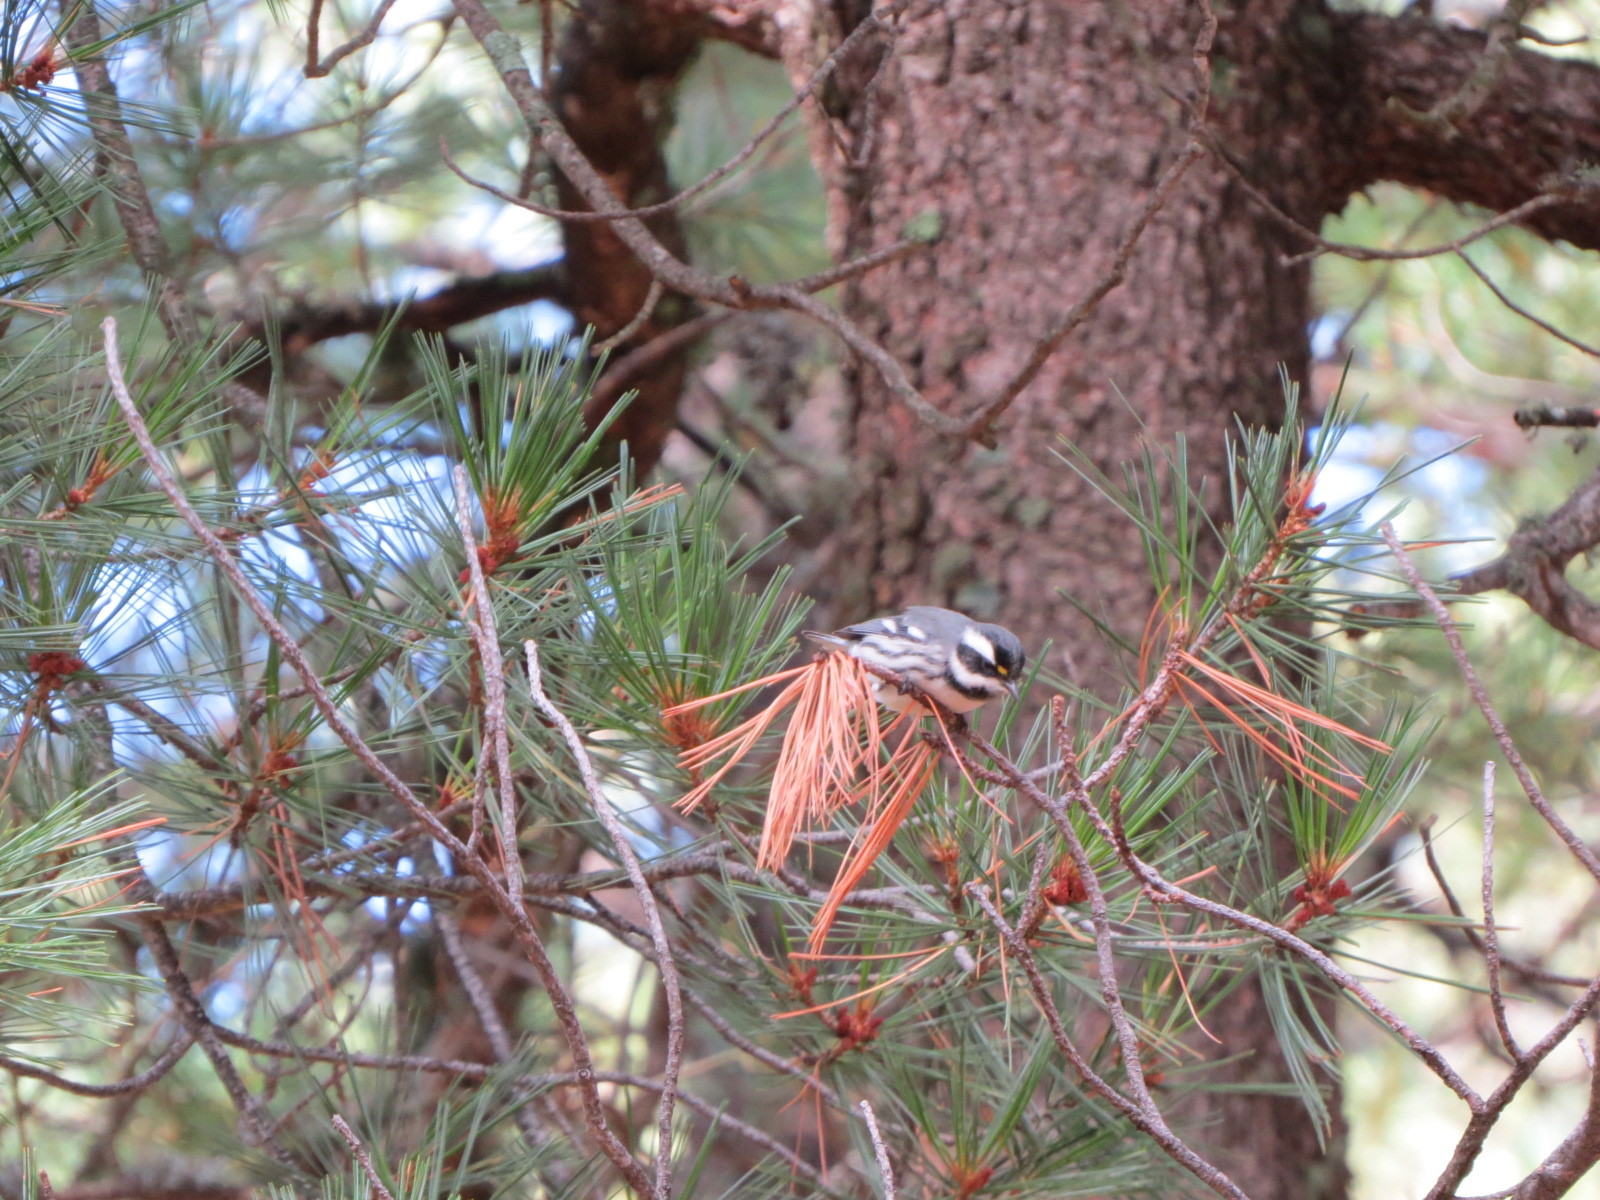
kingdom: Animalia
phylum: Chordata
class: Aves
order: Passeriformes
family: Parulidae
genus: Setophaga
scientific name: Setophaga nigrescens
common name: Black-throated gray warbler
